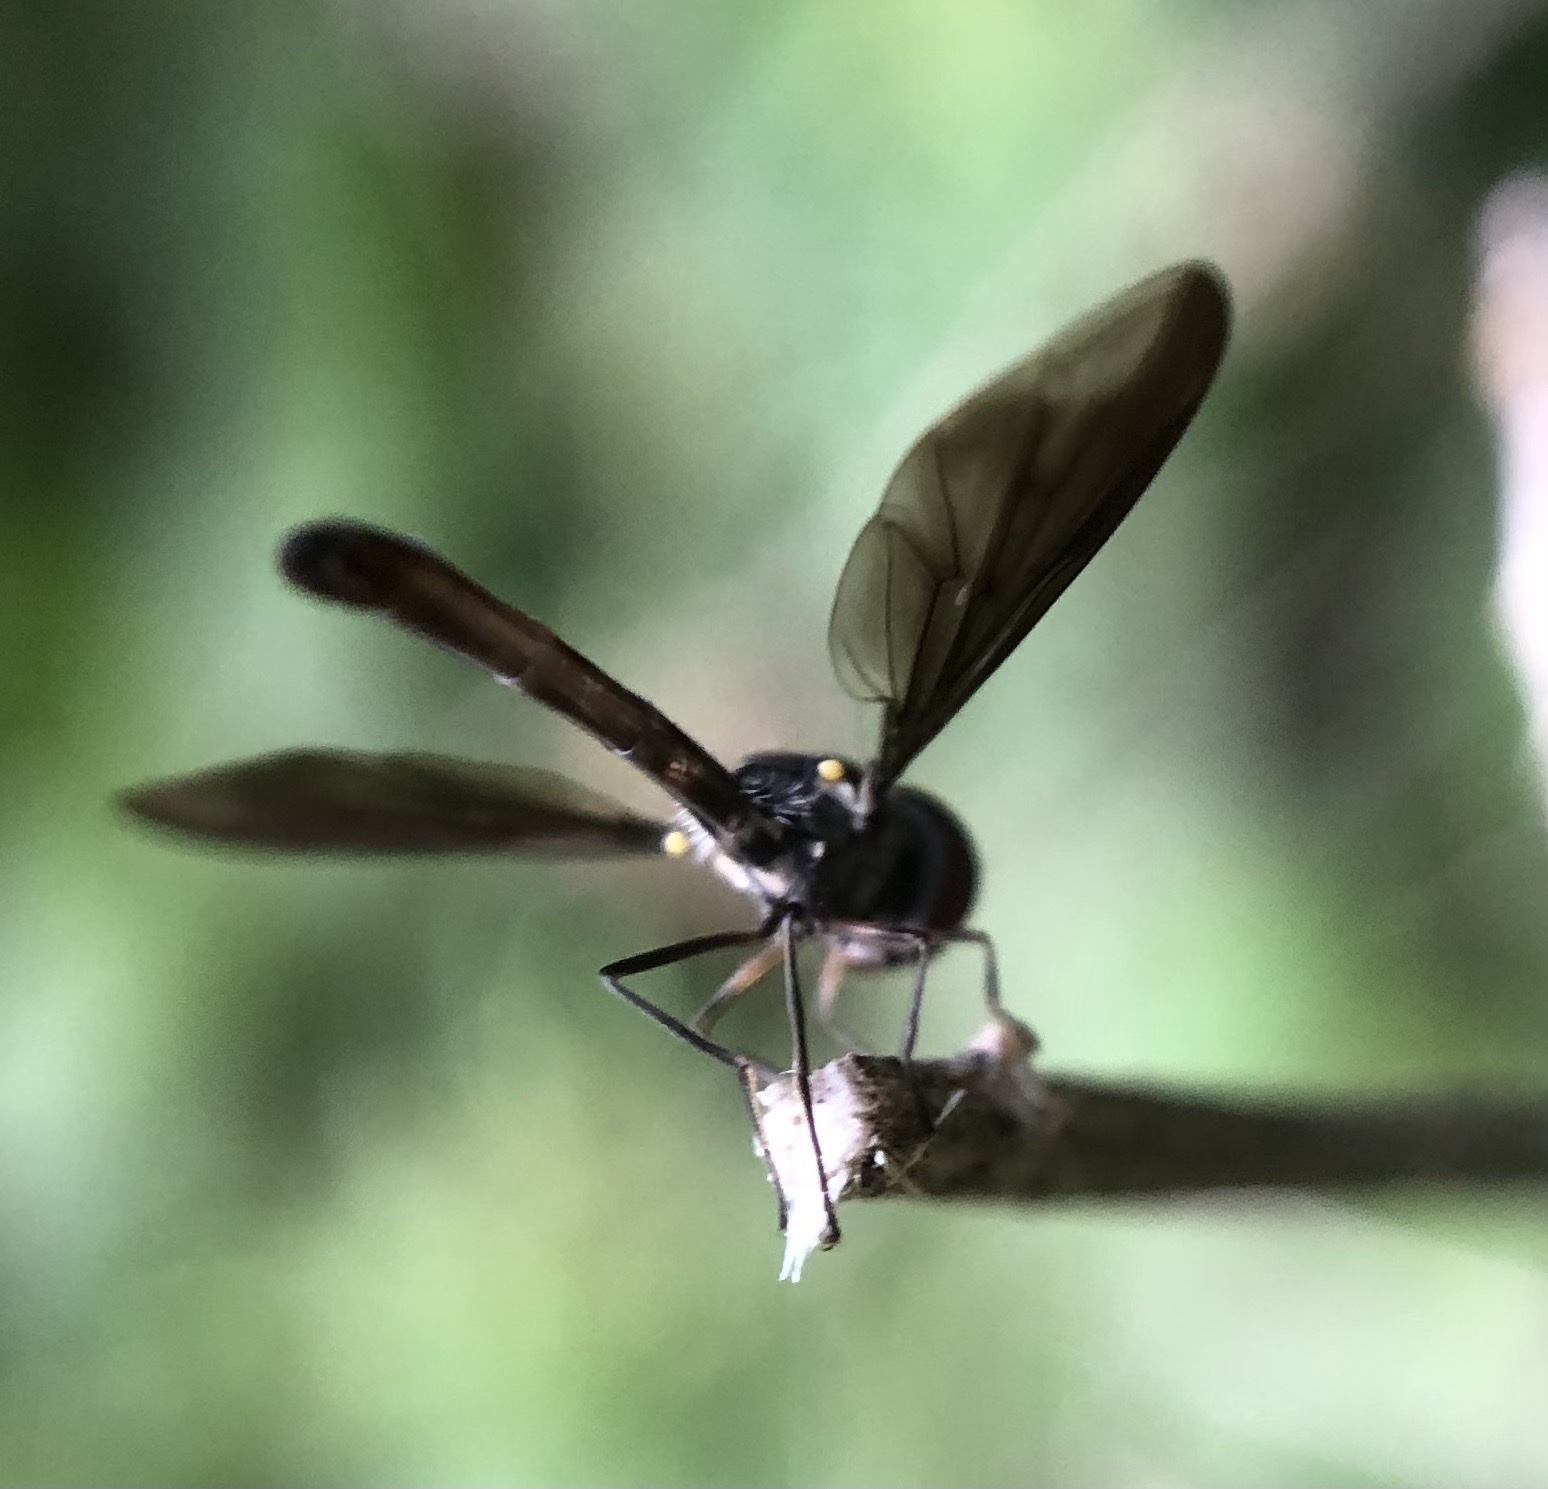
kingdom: Animalia
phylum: Arthropoda
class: Insecta
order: Diptera
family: Syrphidae
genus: Ocyptamus
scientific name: Ocyptamus fuscipennis
